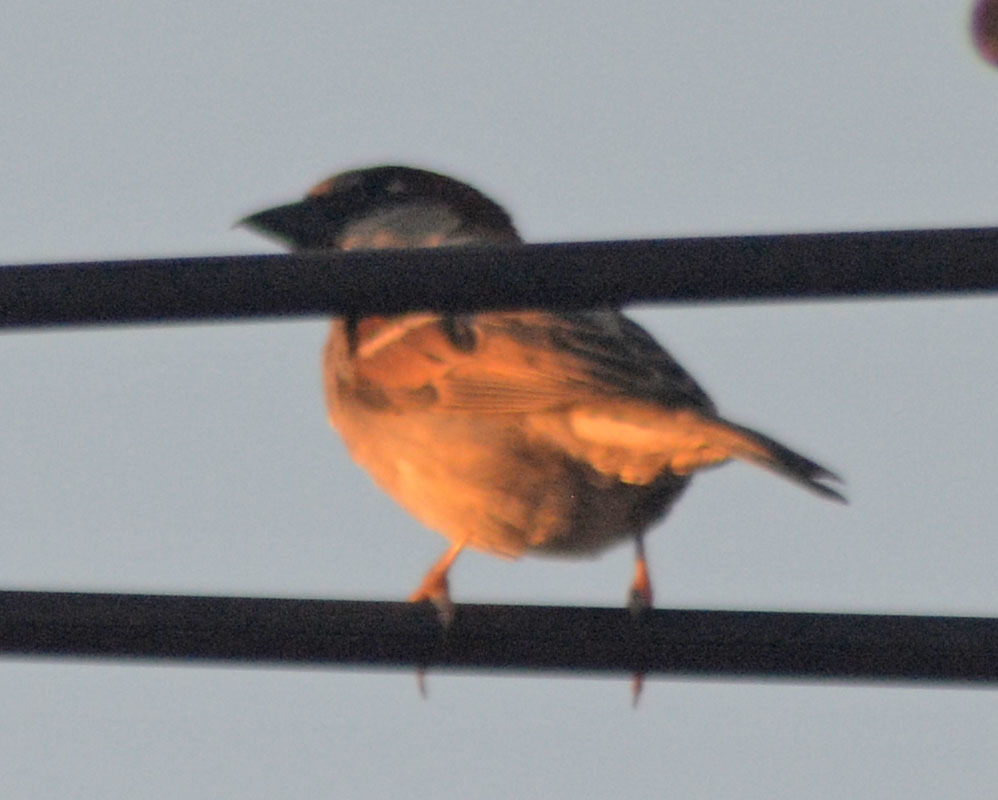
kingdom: Animalia
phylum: Chordata
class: Aves
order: Passeriformes
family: Passeridae
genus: Passer
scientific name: Passer domesticus
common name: House sparrow
